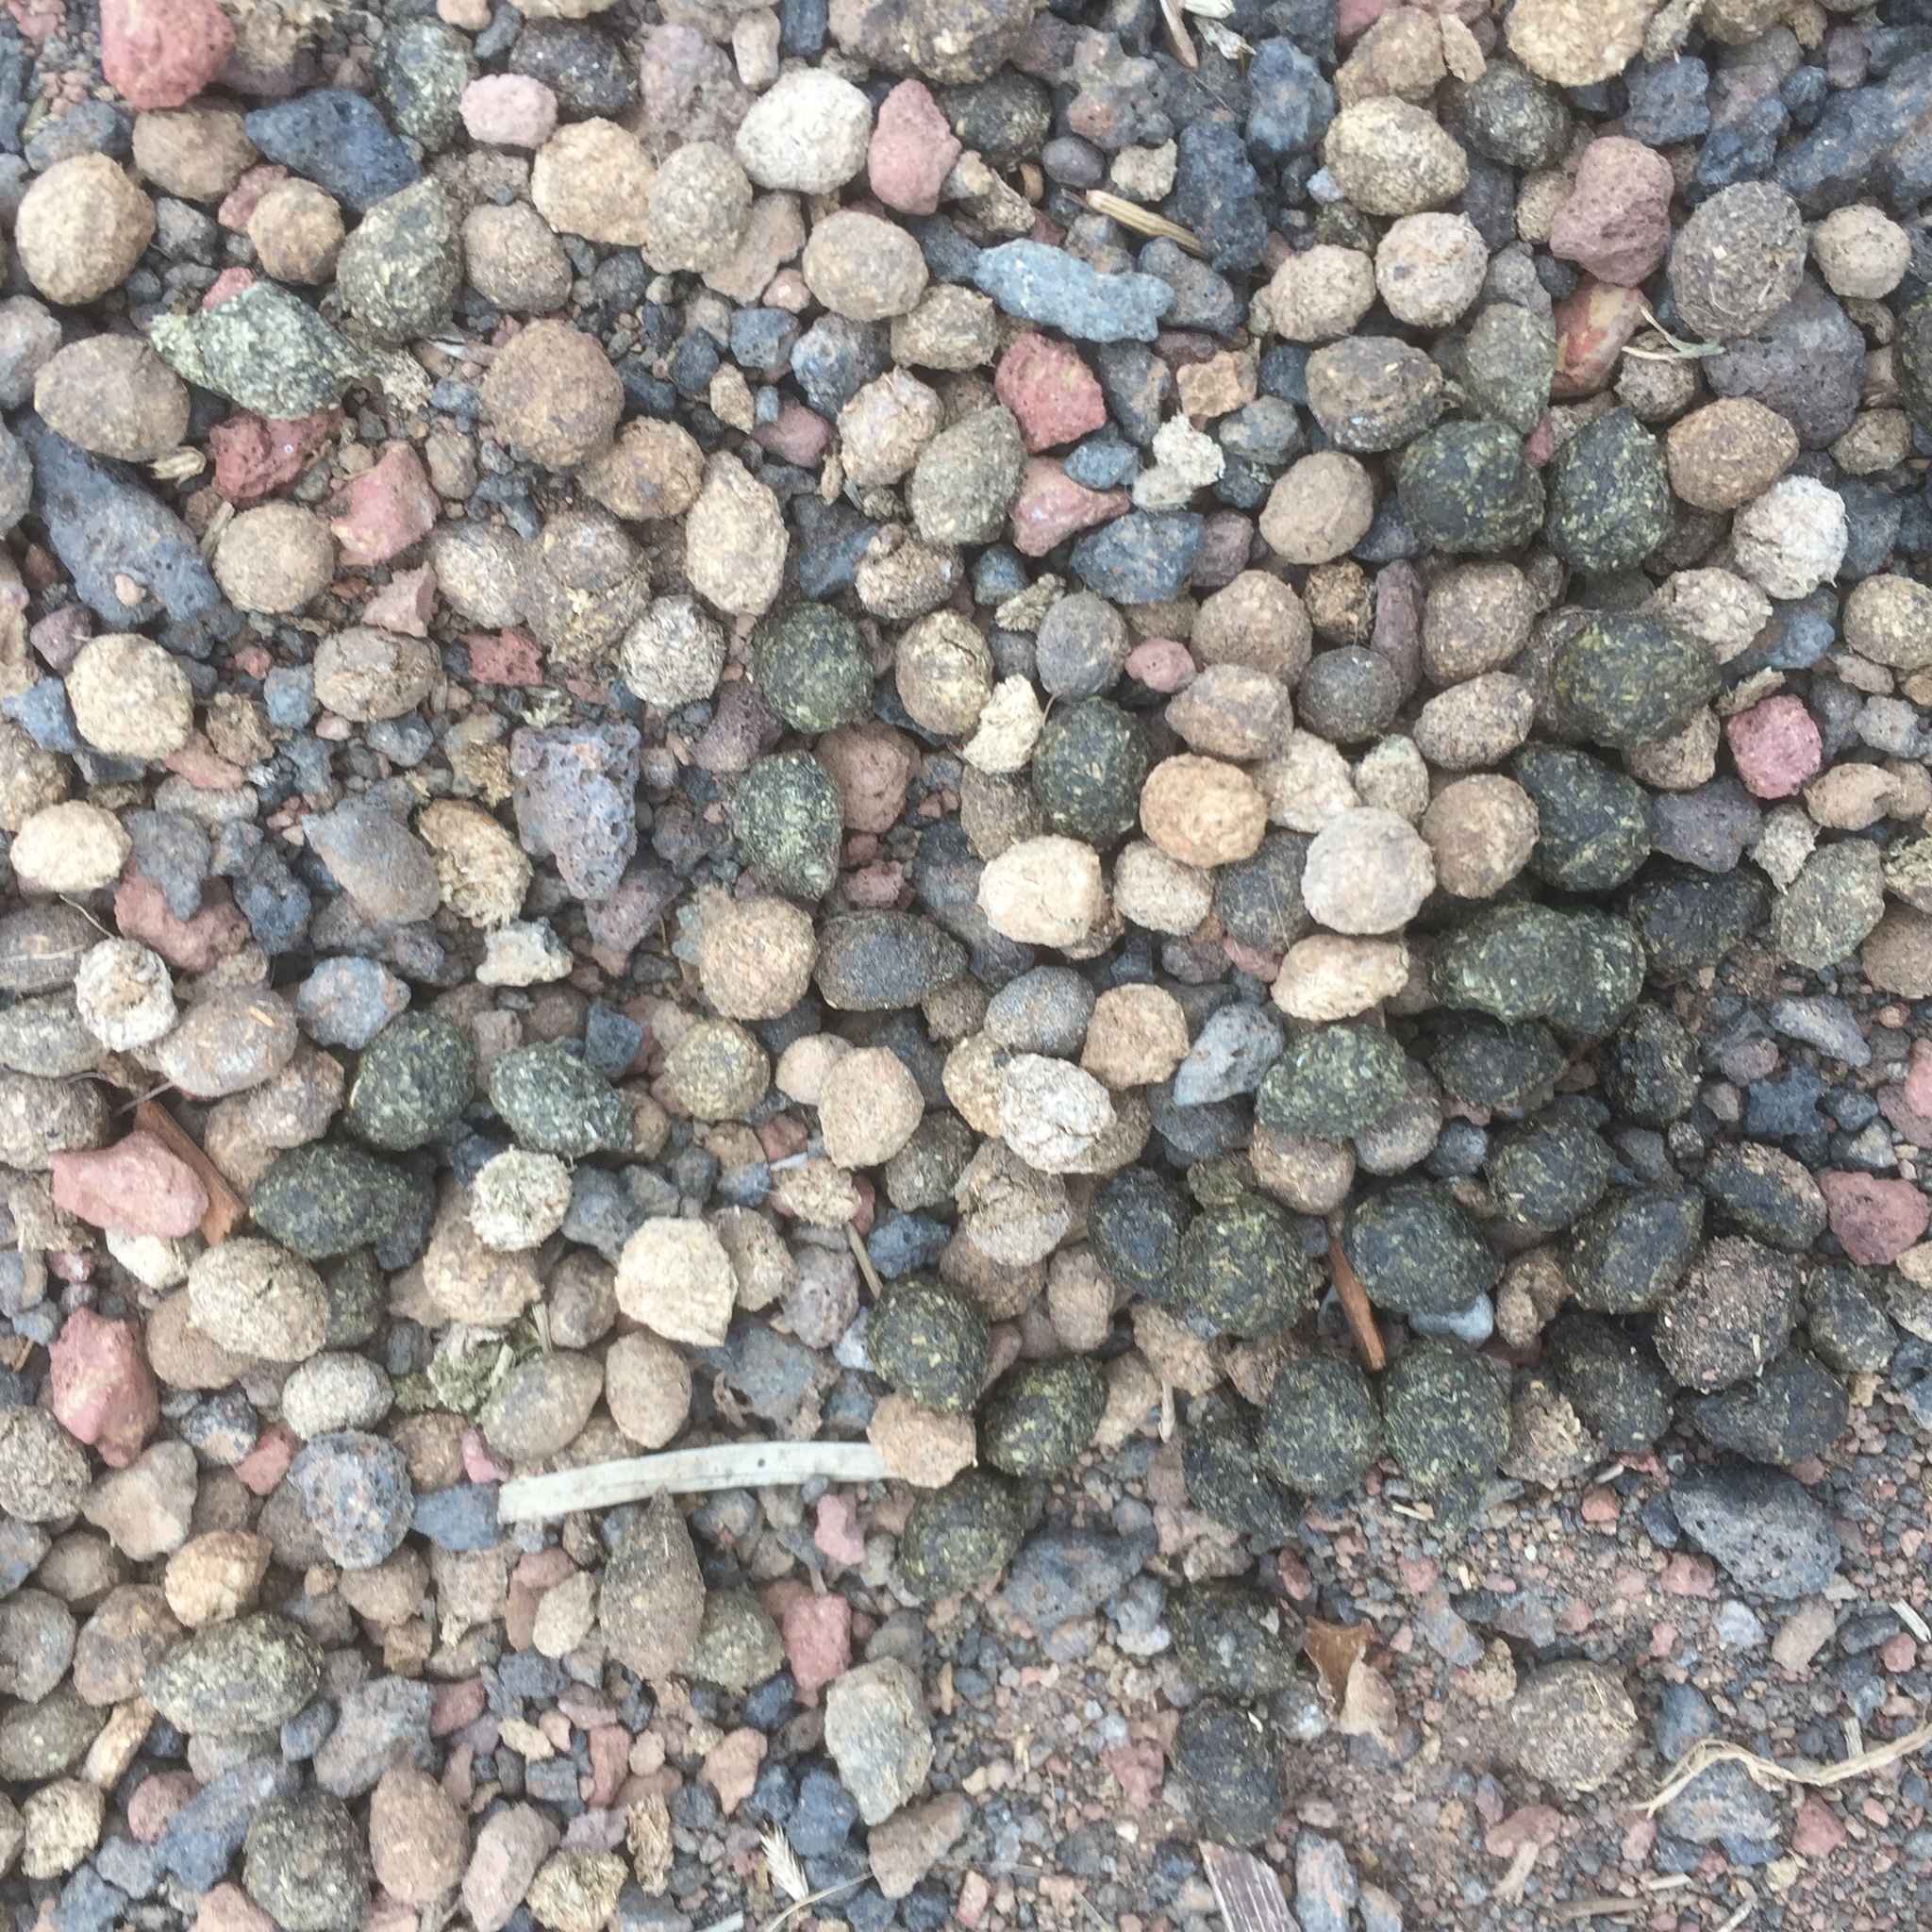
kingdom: Animalia
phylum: Chordata
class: Mammalia
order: Lagomorpha
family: Leporidae
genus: Oryctolagus
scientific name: Oryctolagus cuniculus
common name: European rabbit
